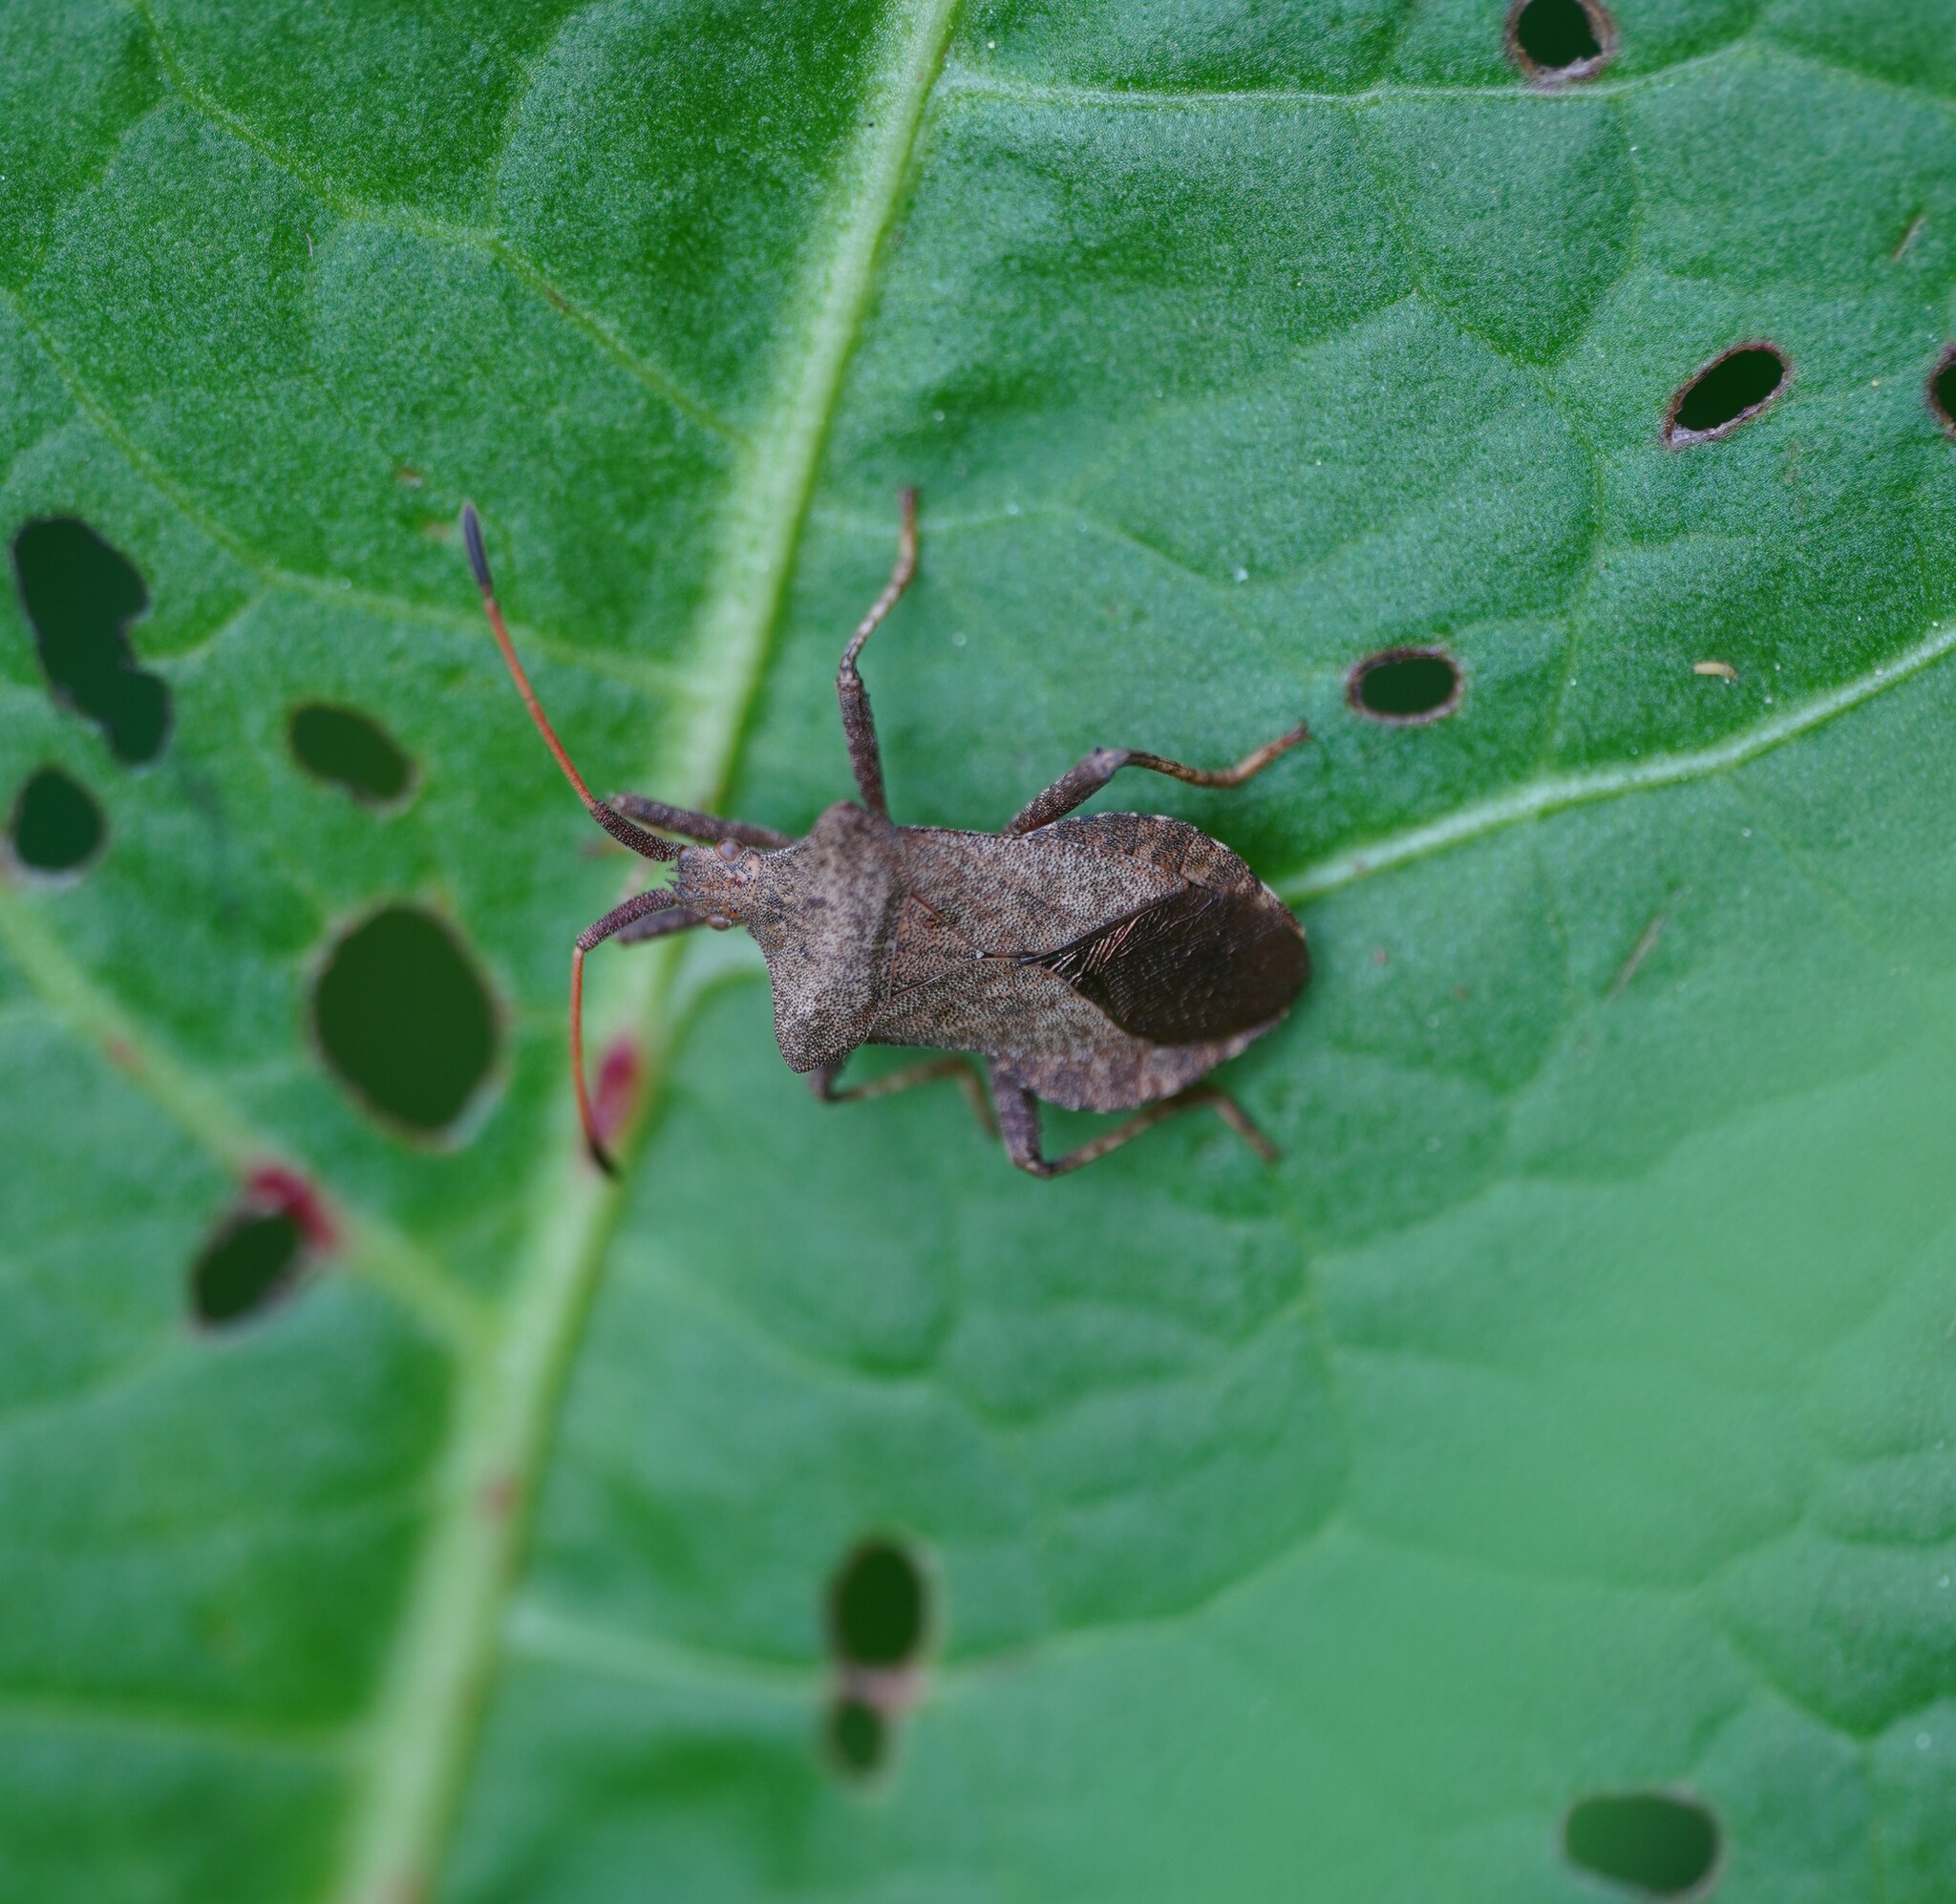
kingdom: Animalia
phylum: Arthropoda
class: Insecta
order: Hemiptera
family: Coreidae
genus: Coreus
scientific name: Coreus marginatus
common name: Dock bug
